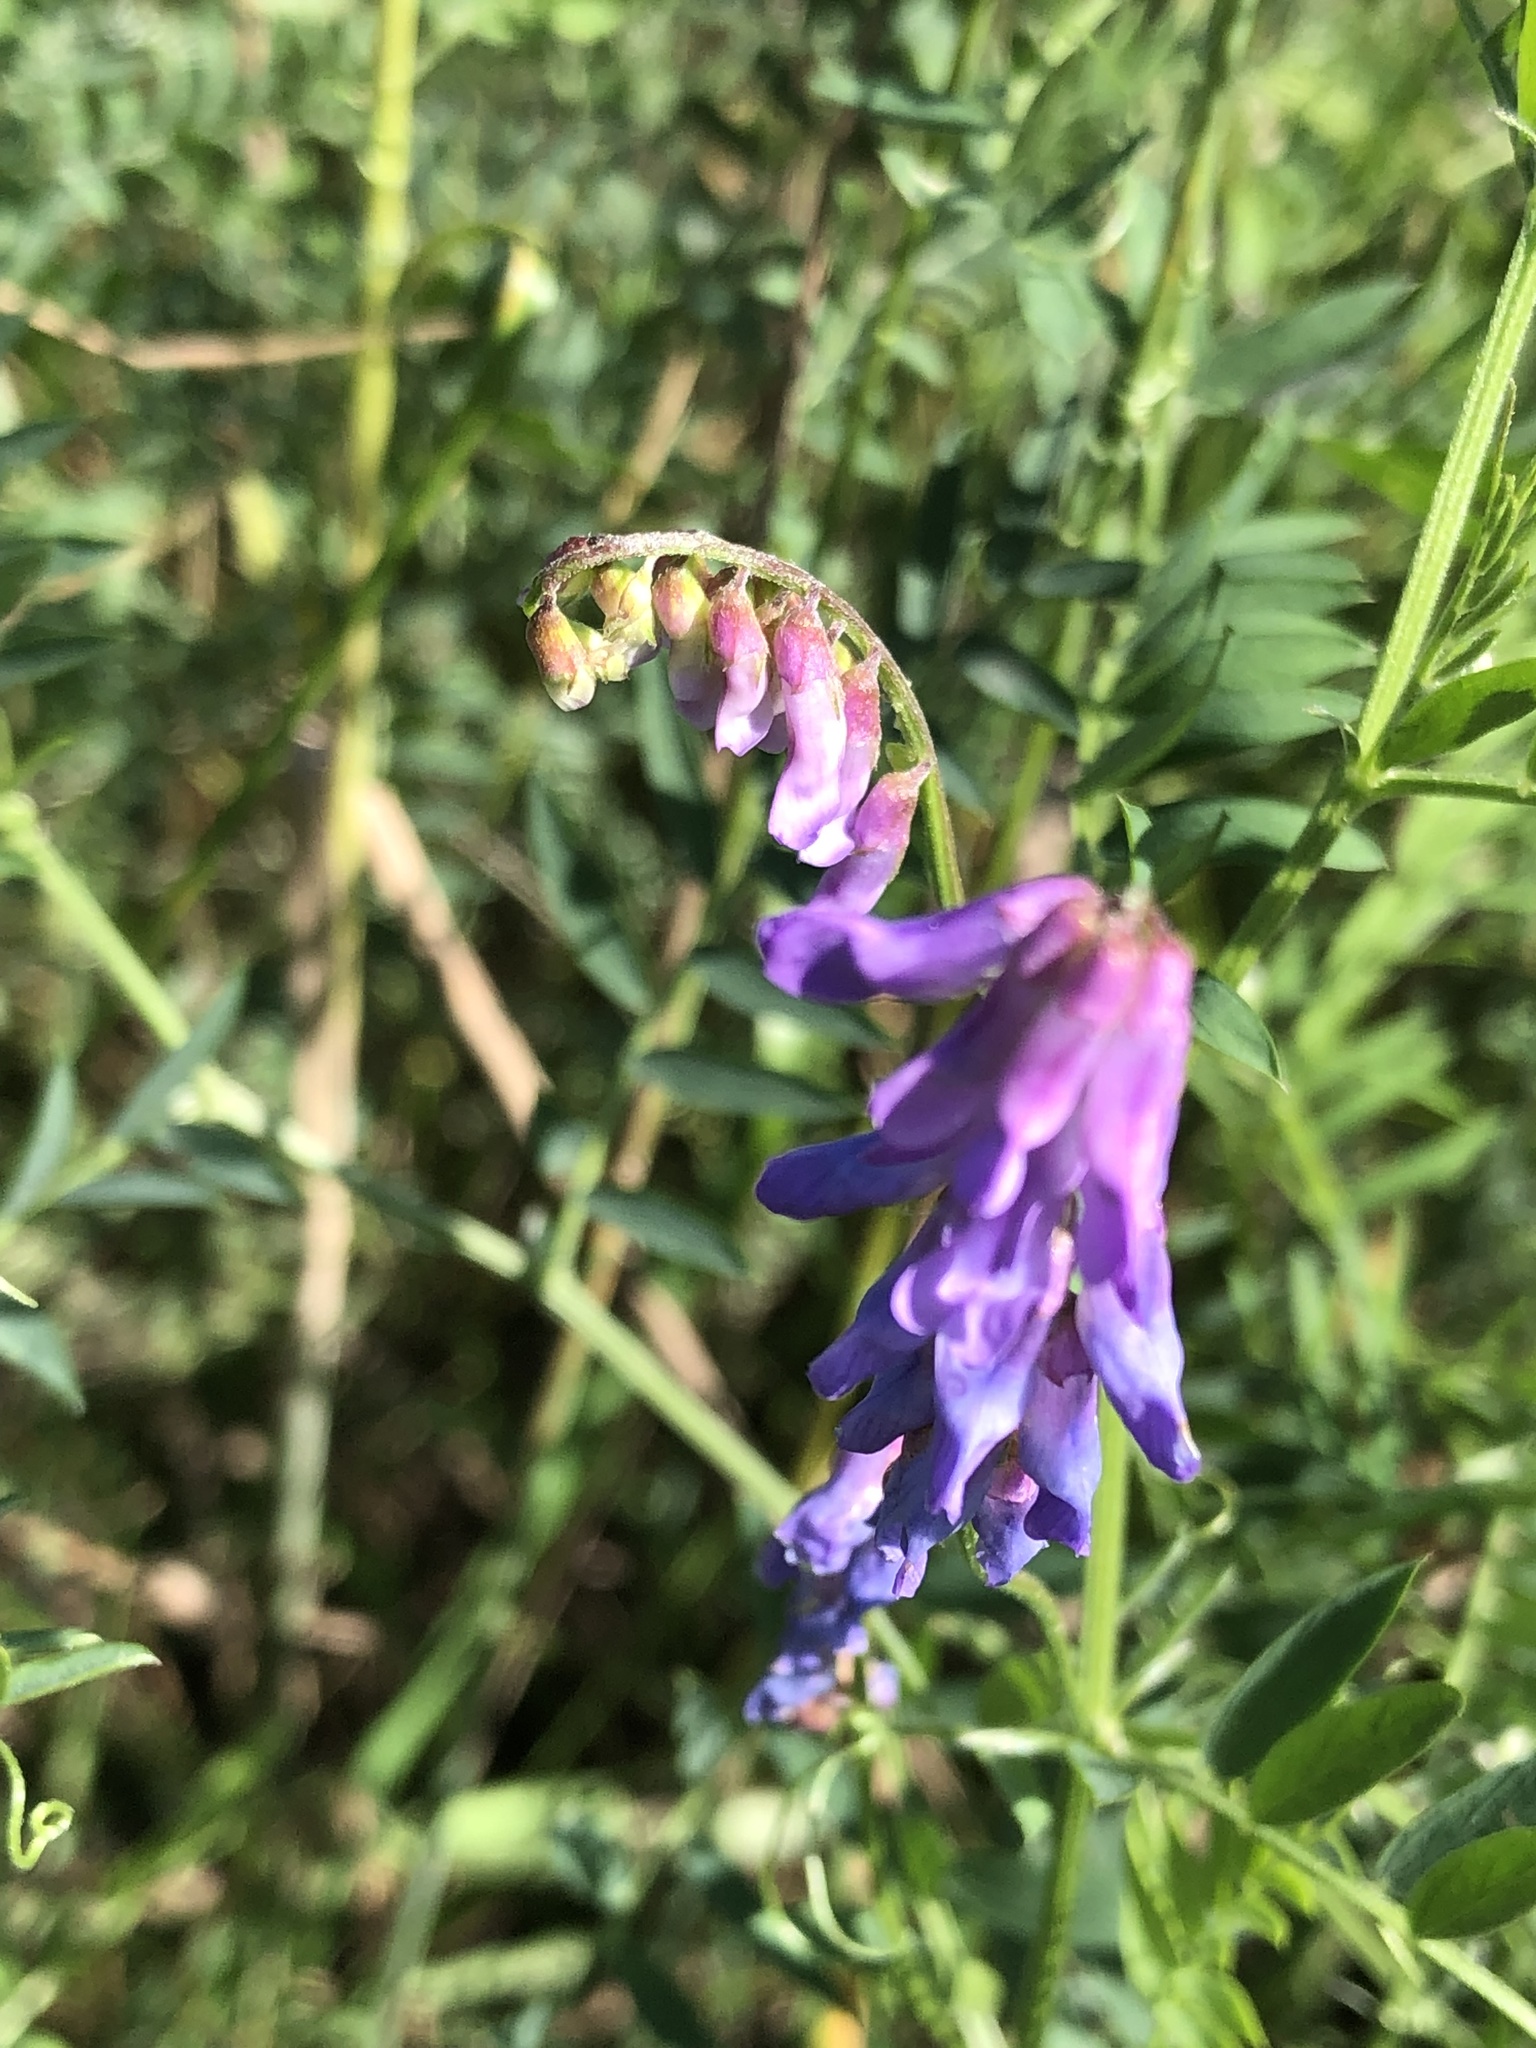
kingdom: Plantae
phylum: Tracheophyta
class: Magnoliopsida
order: Fabales
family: Fabaceae
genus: Vicia
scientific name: Vicia cracca
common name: Bird vetch
